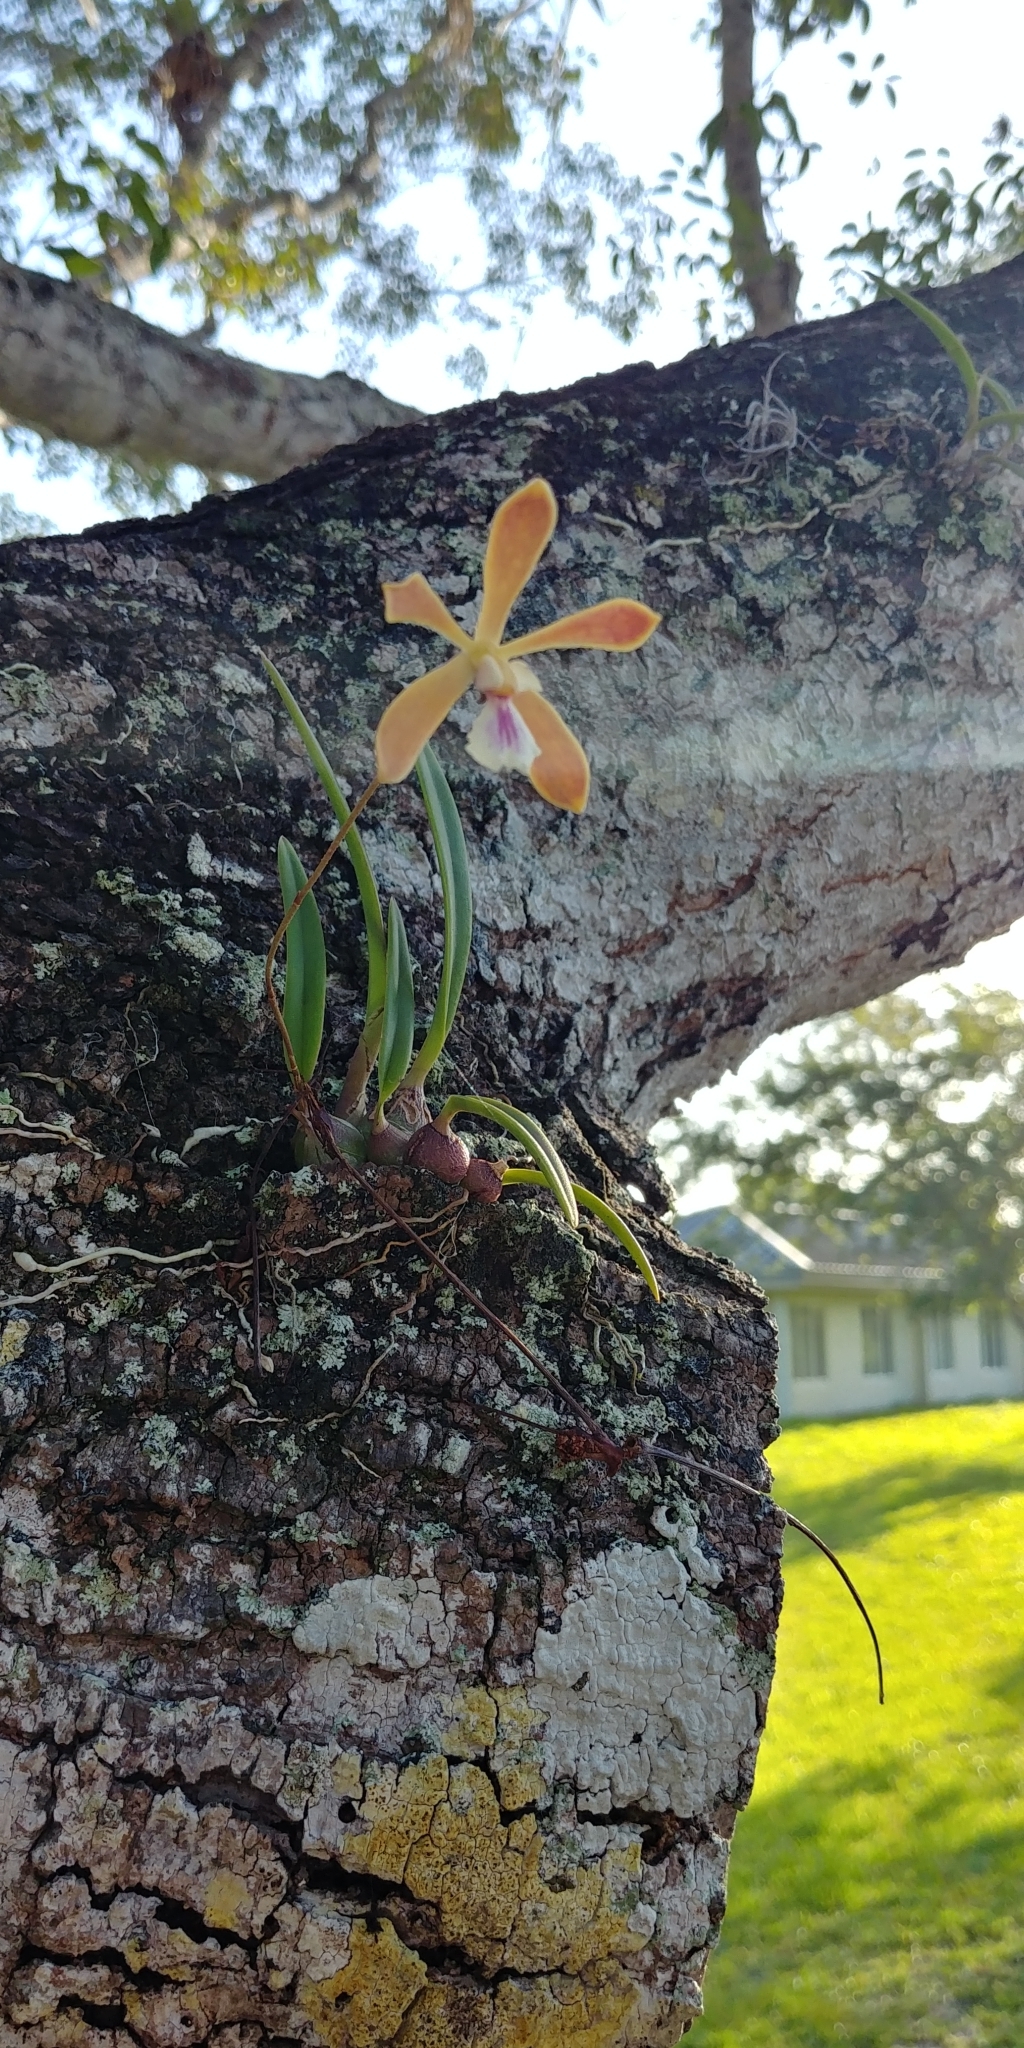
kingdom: Plantae
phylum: Tracheophyta
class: Liliopsida
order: Asparagales
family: Orchidaceae
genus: Encyclia
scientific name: Encyclia tampensis
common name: Florida butterfly orchid
